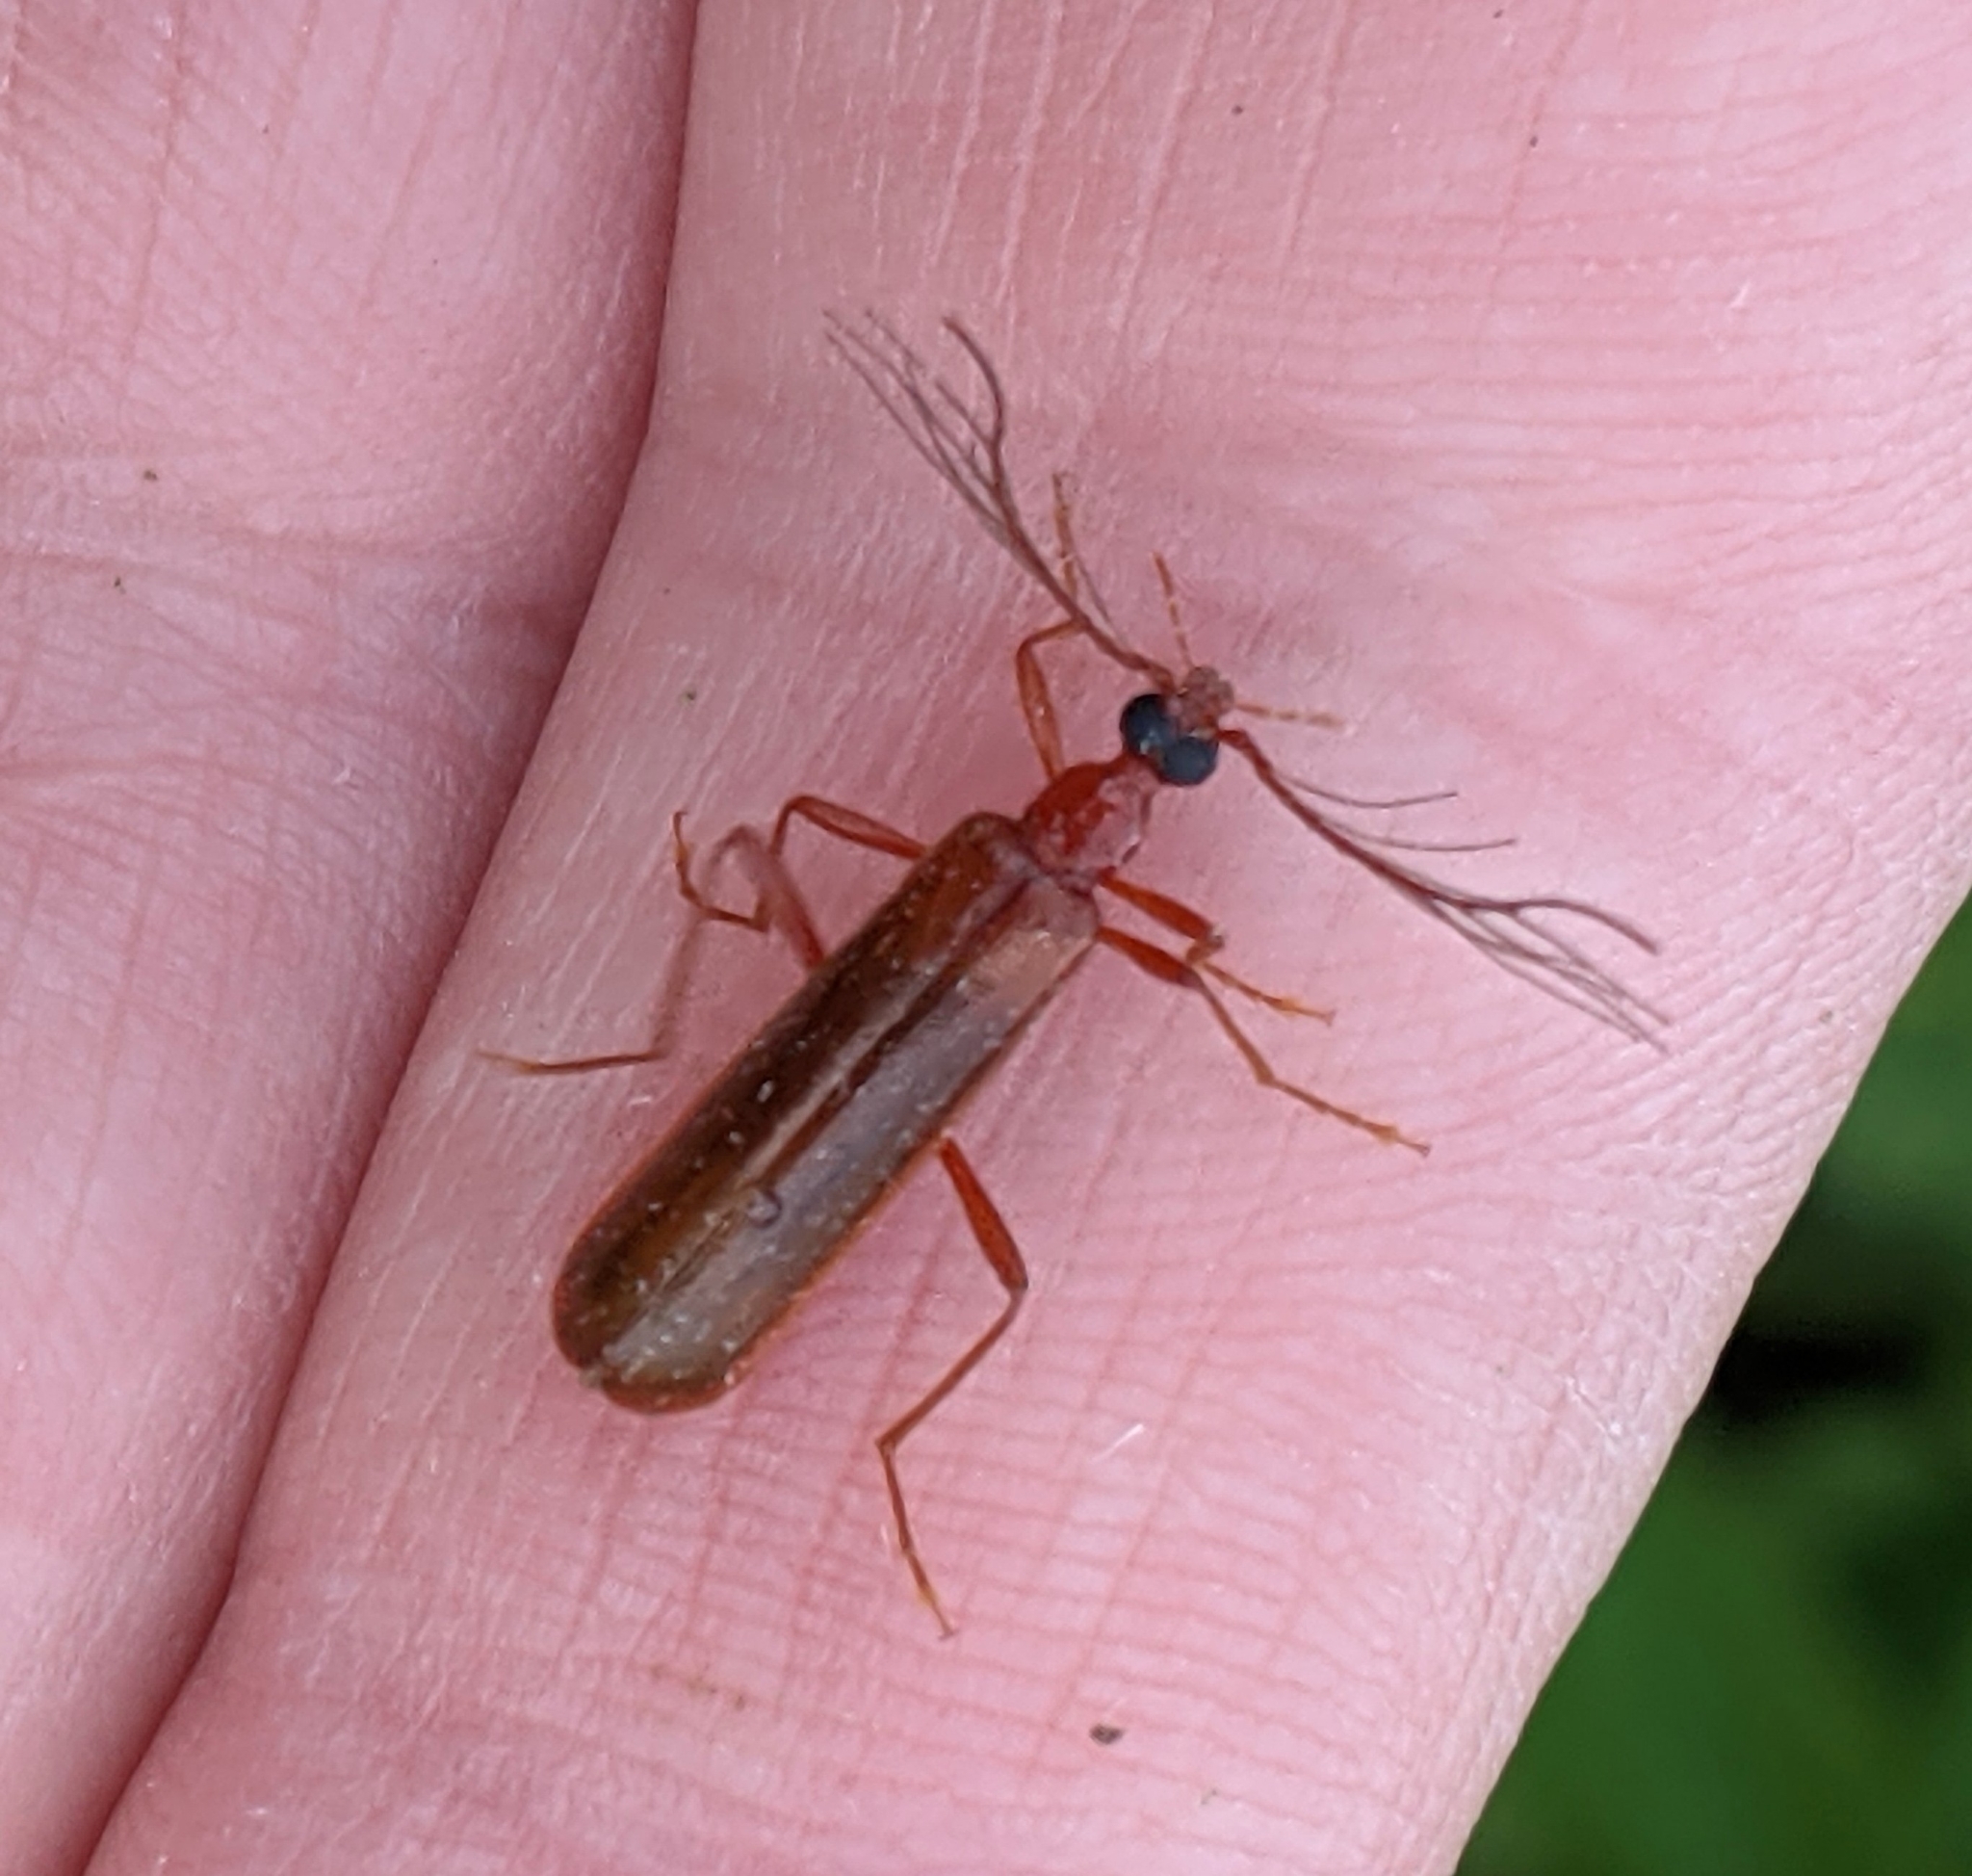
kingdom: Animalia
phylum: Arthropoda
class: Insecta
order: Coleoptera
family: Pyrochroidae
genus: Dendroides
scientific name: Dendroides ephemeroides
